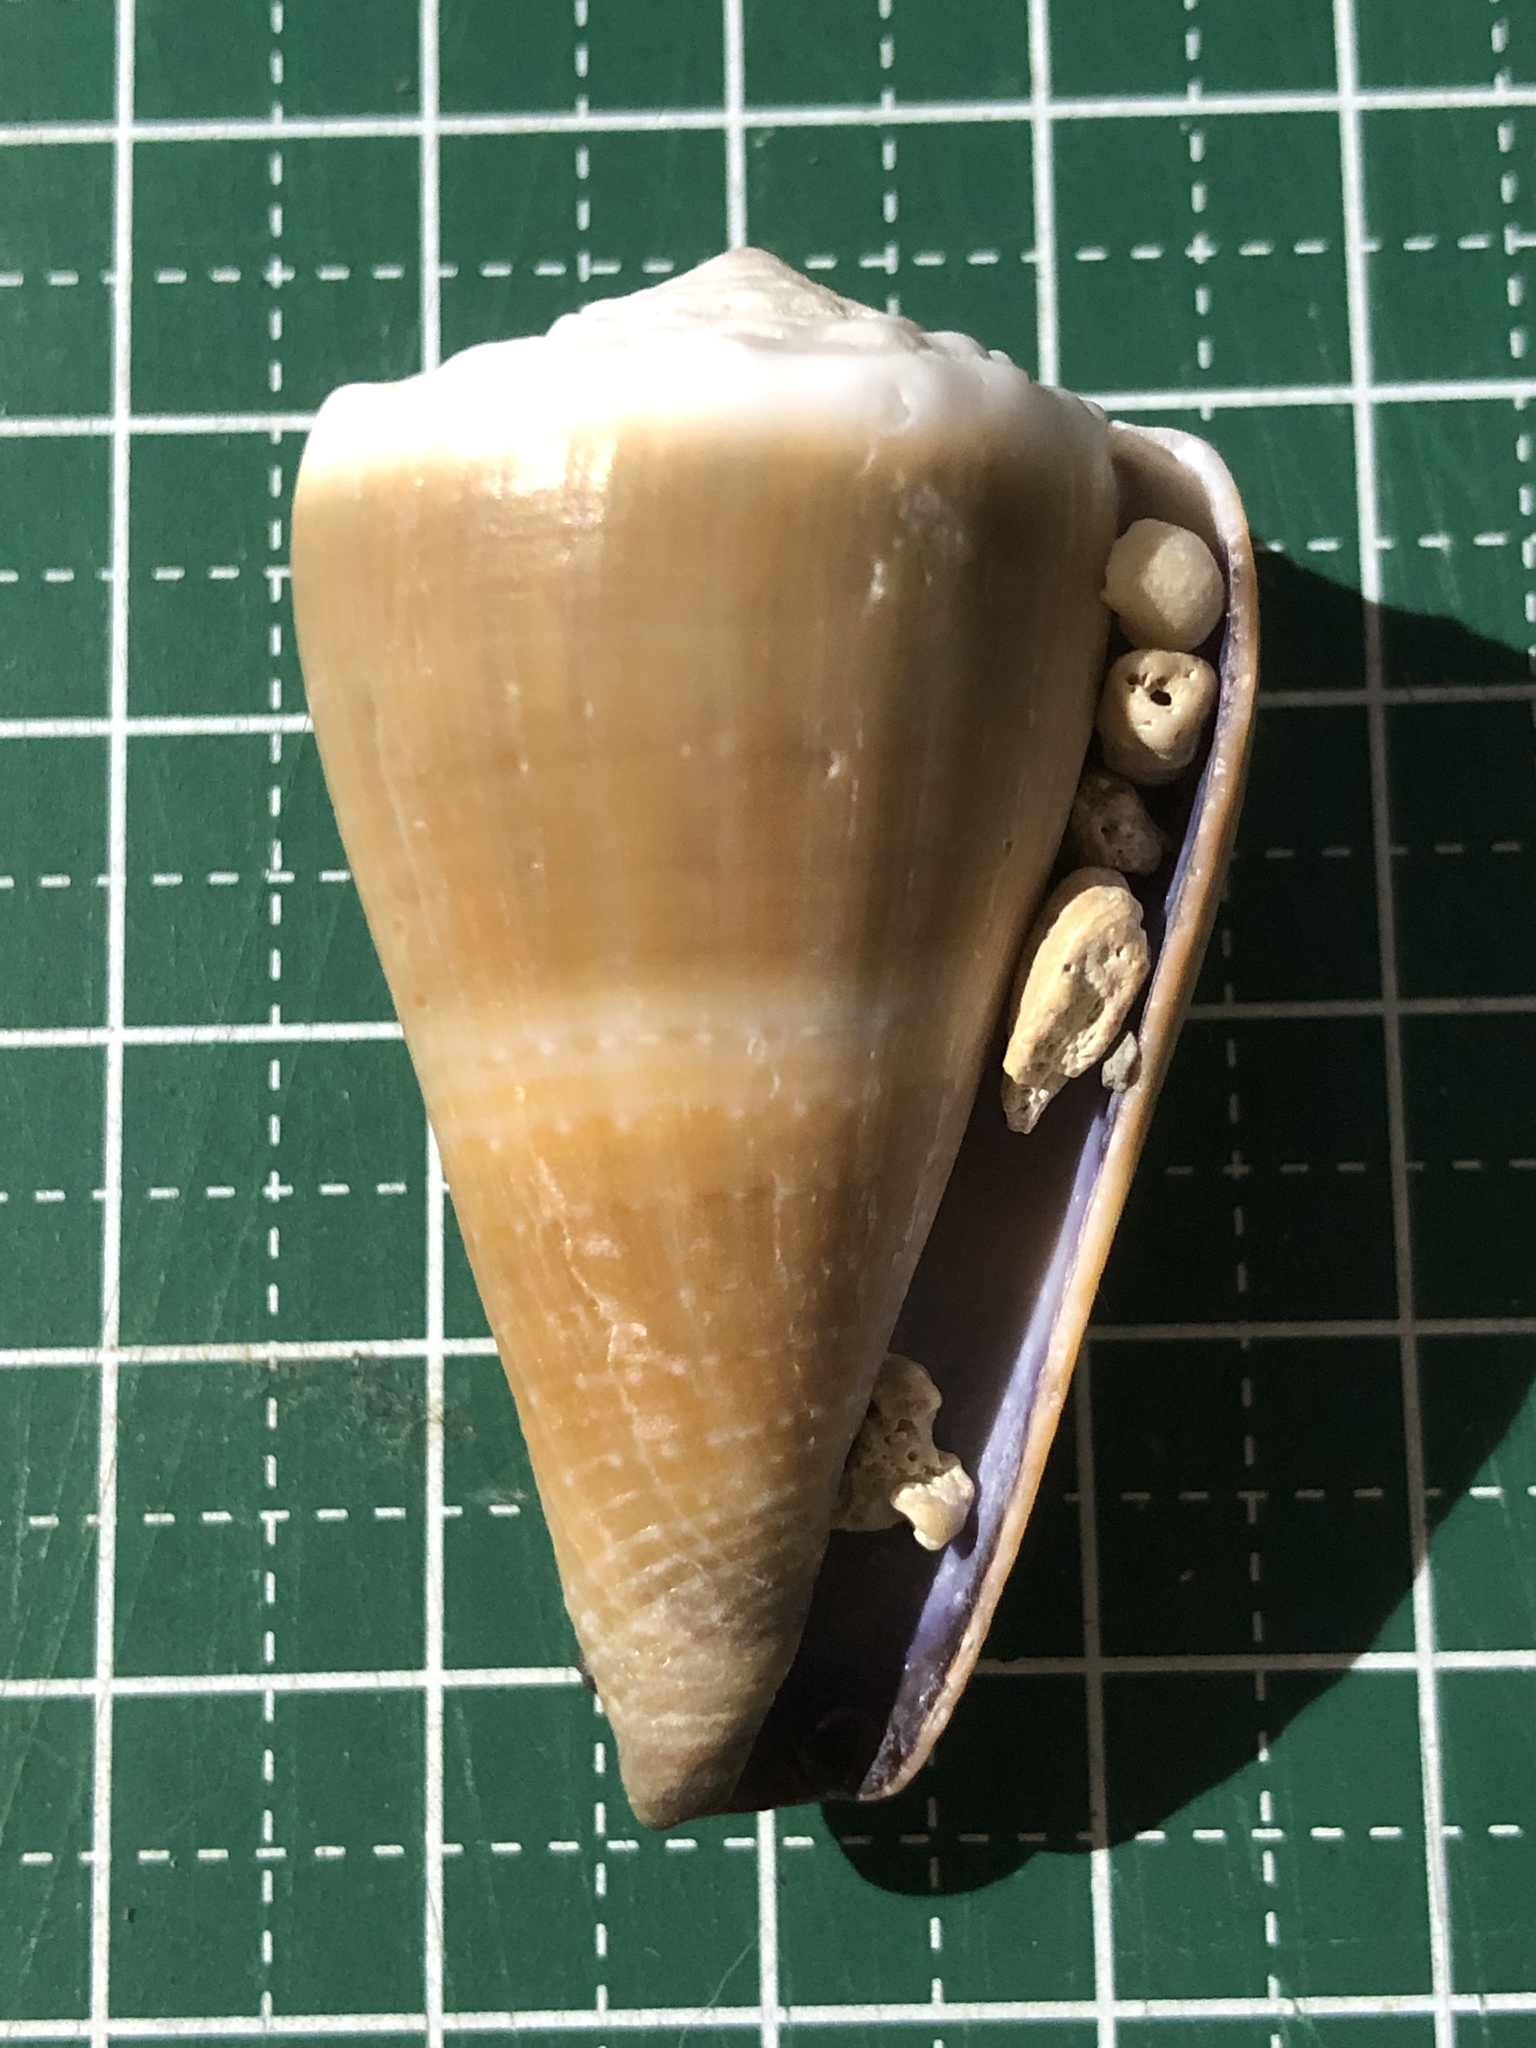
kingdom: Animalia
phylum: Mollusca
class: Gastropoda
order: Neogastropoda
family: Conidae
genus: Conus
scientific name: Conus lividus
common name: Livid cone
